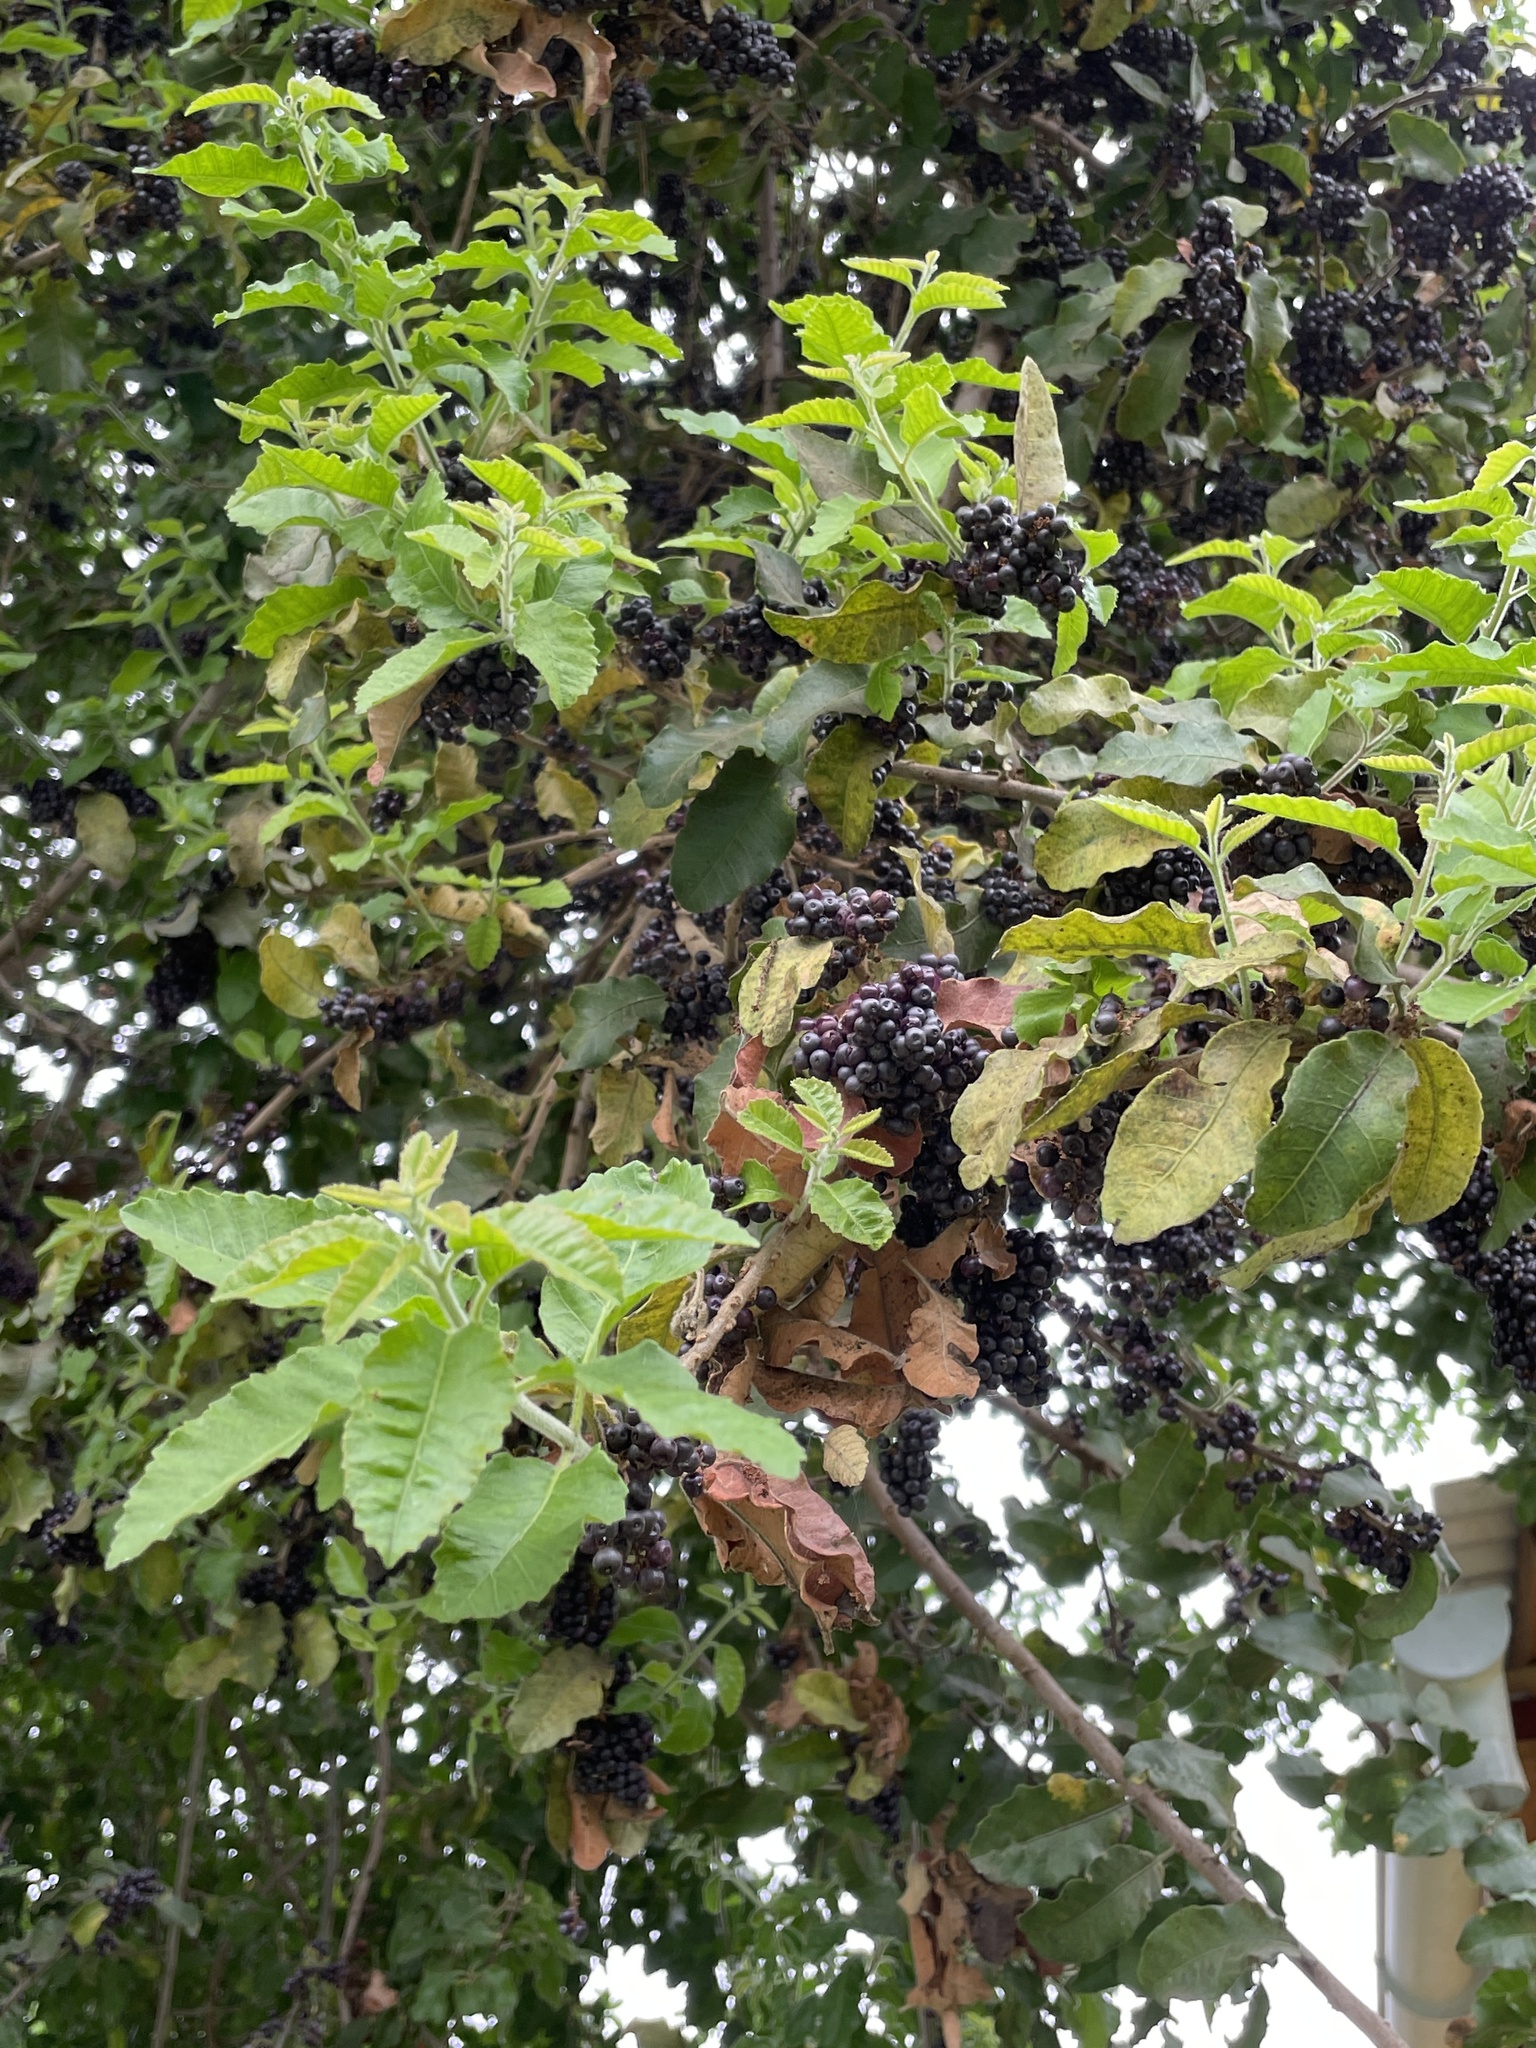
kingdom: Plantae
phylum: Tracheophyta
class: Magnoliopsida
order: Sapindales
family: Anacardiaceae
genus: Schinus
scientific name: Schinus latifolia
